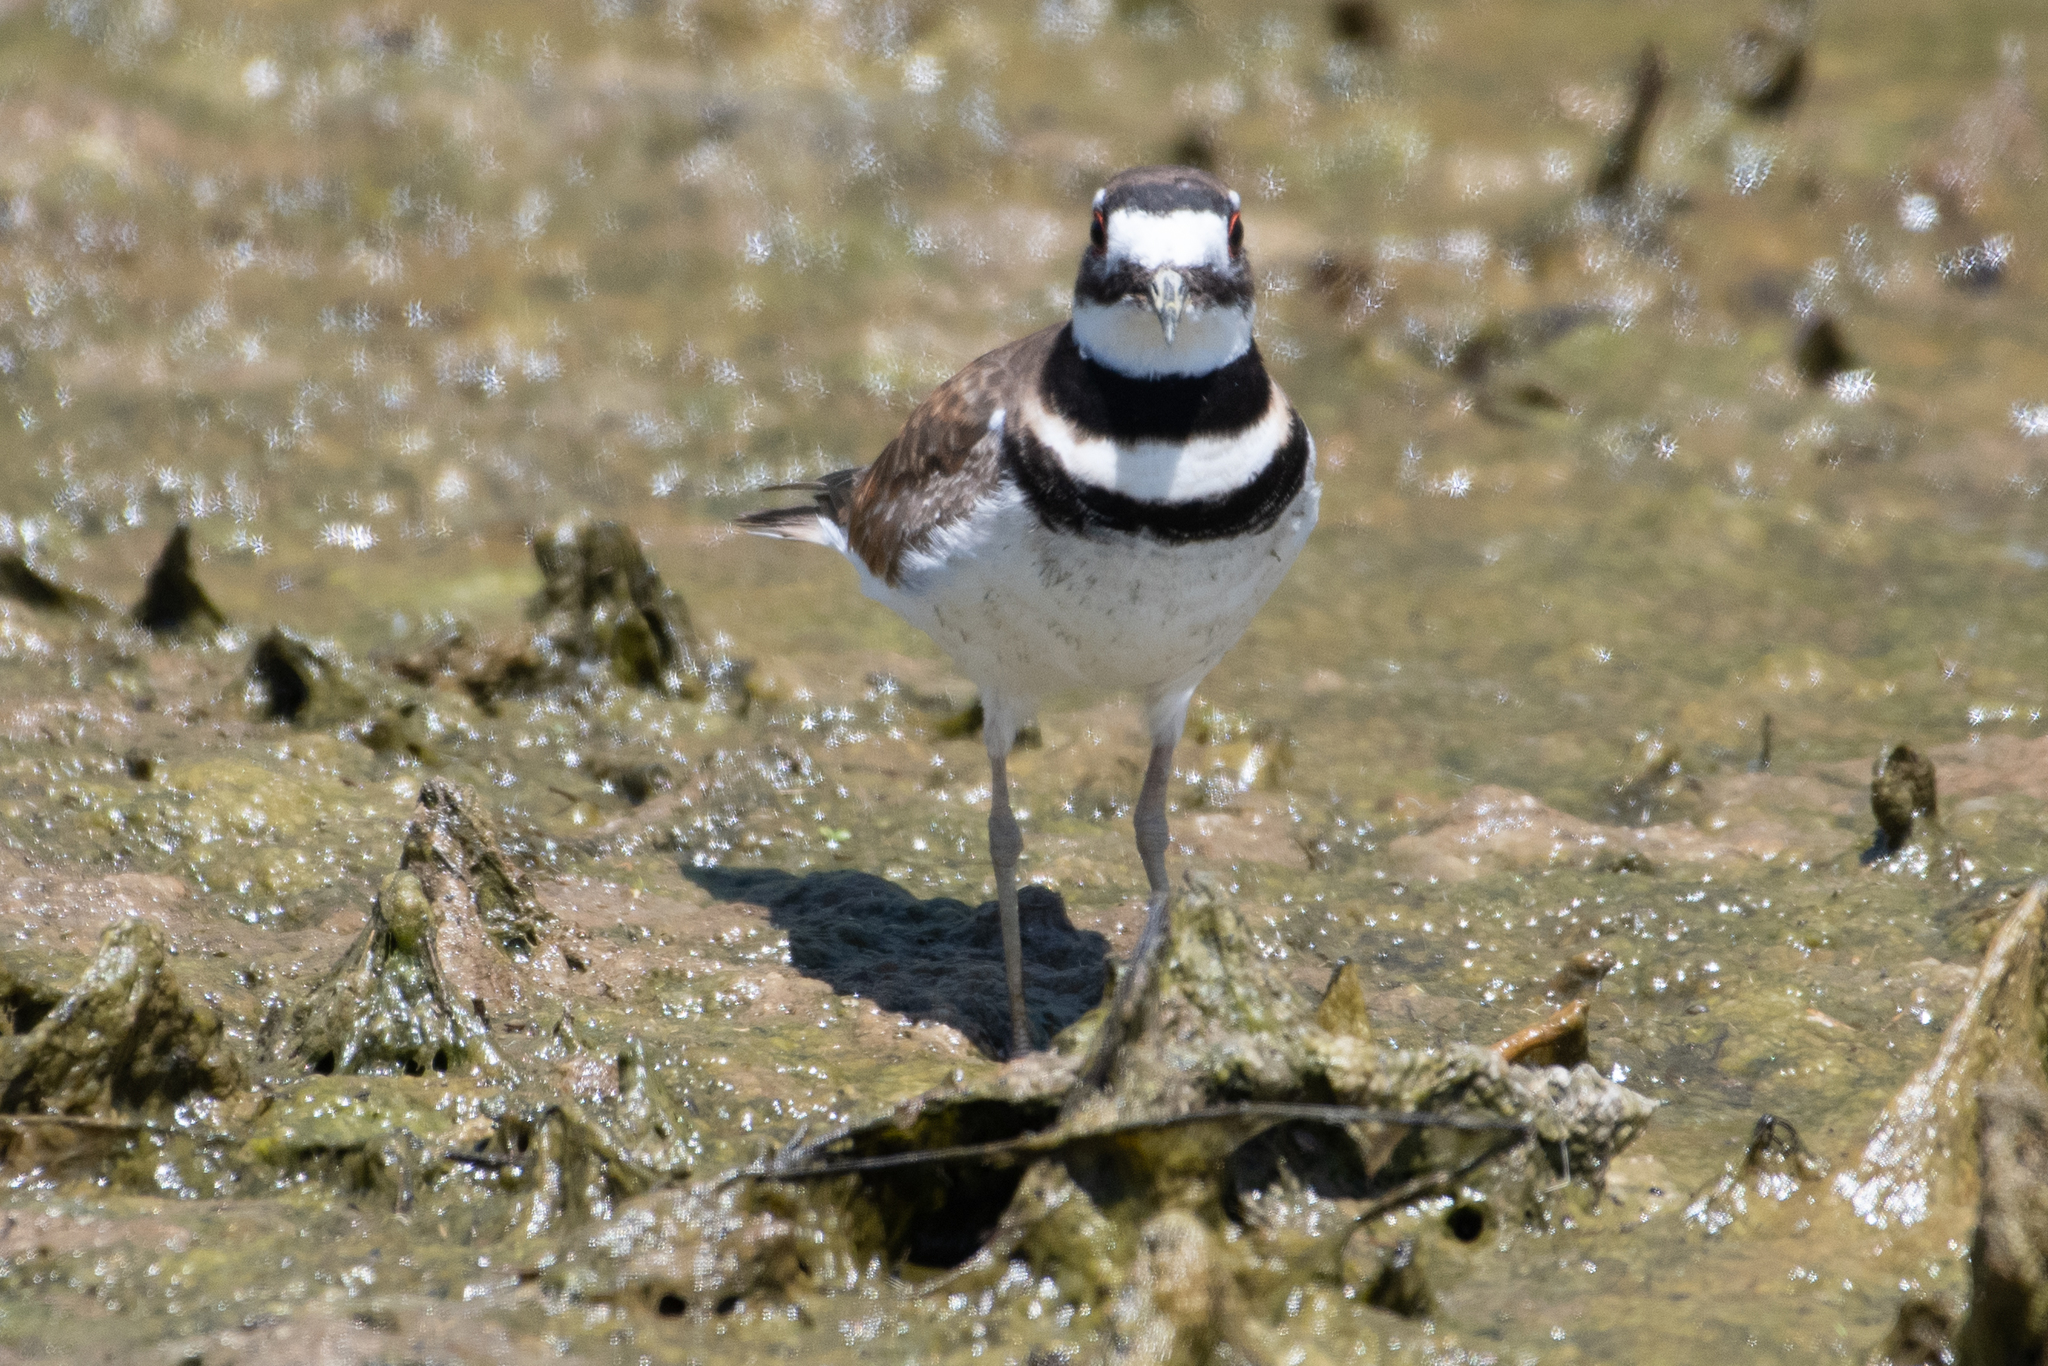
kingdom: Animalia
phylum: Chordata
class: Aves
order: Charadriiformes
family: Charadriidae
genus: Charadrius
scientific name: Charadrius vociferus
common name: Killdeer
